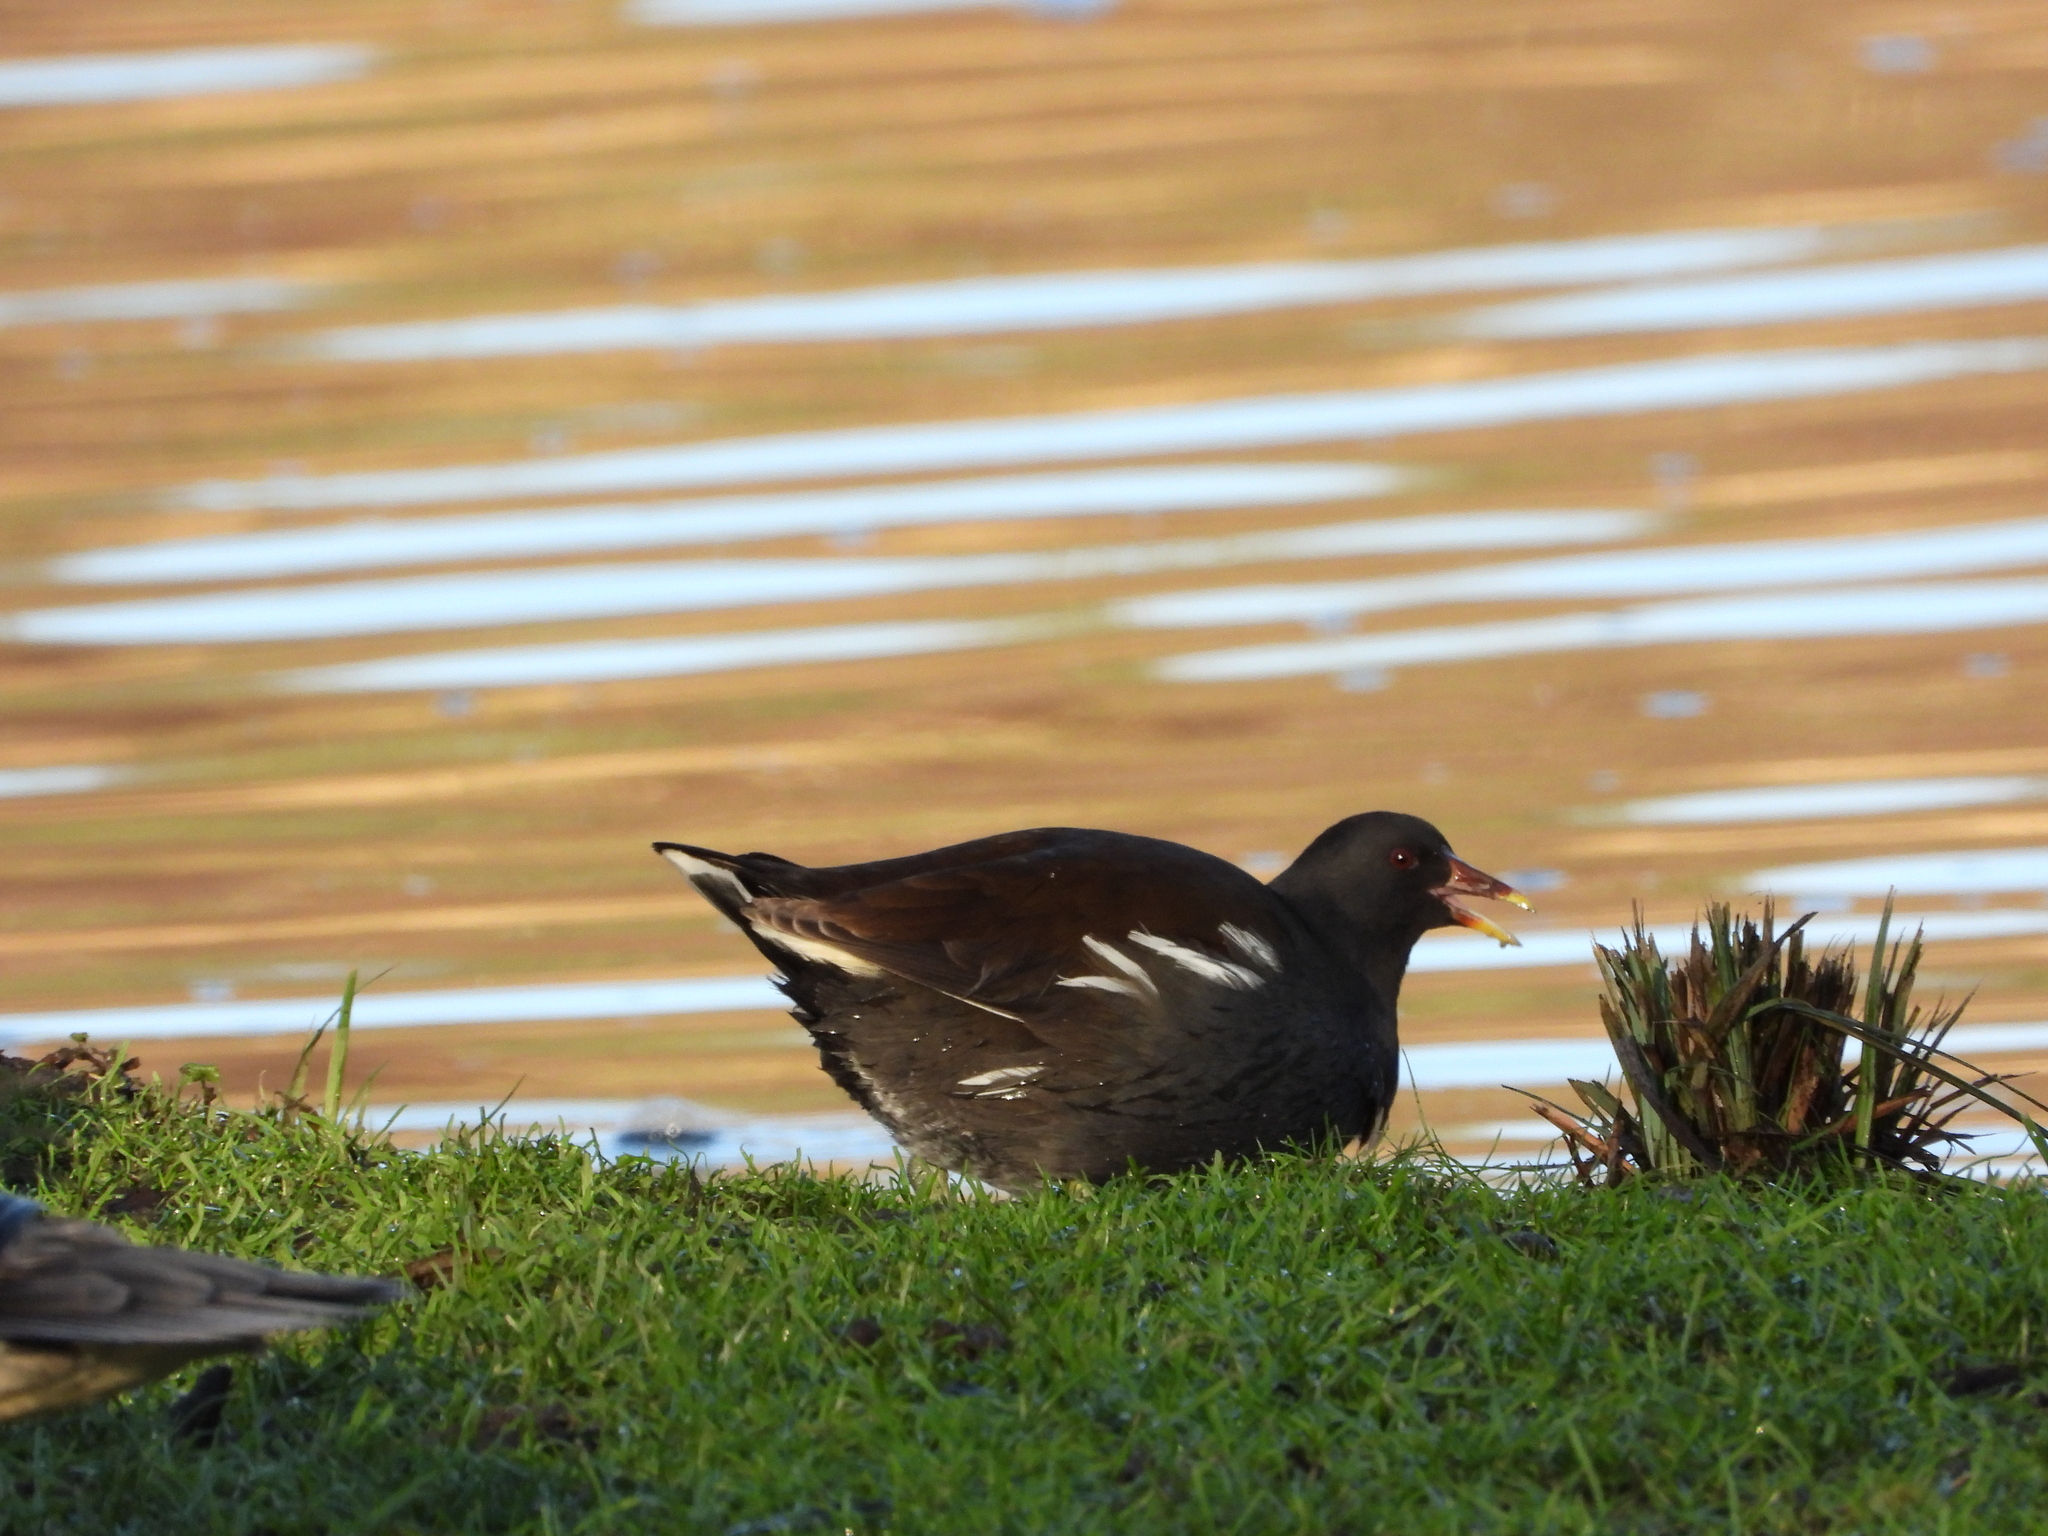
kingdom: Animalia
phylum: Chordata
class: Aves
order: Gruiformes
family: Rallidae
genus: Gallinula
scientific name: Gallinula chloropus
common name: Common moorhen
